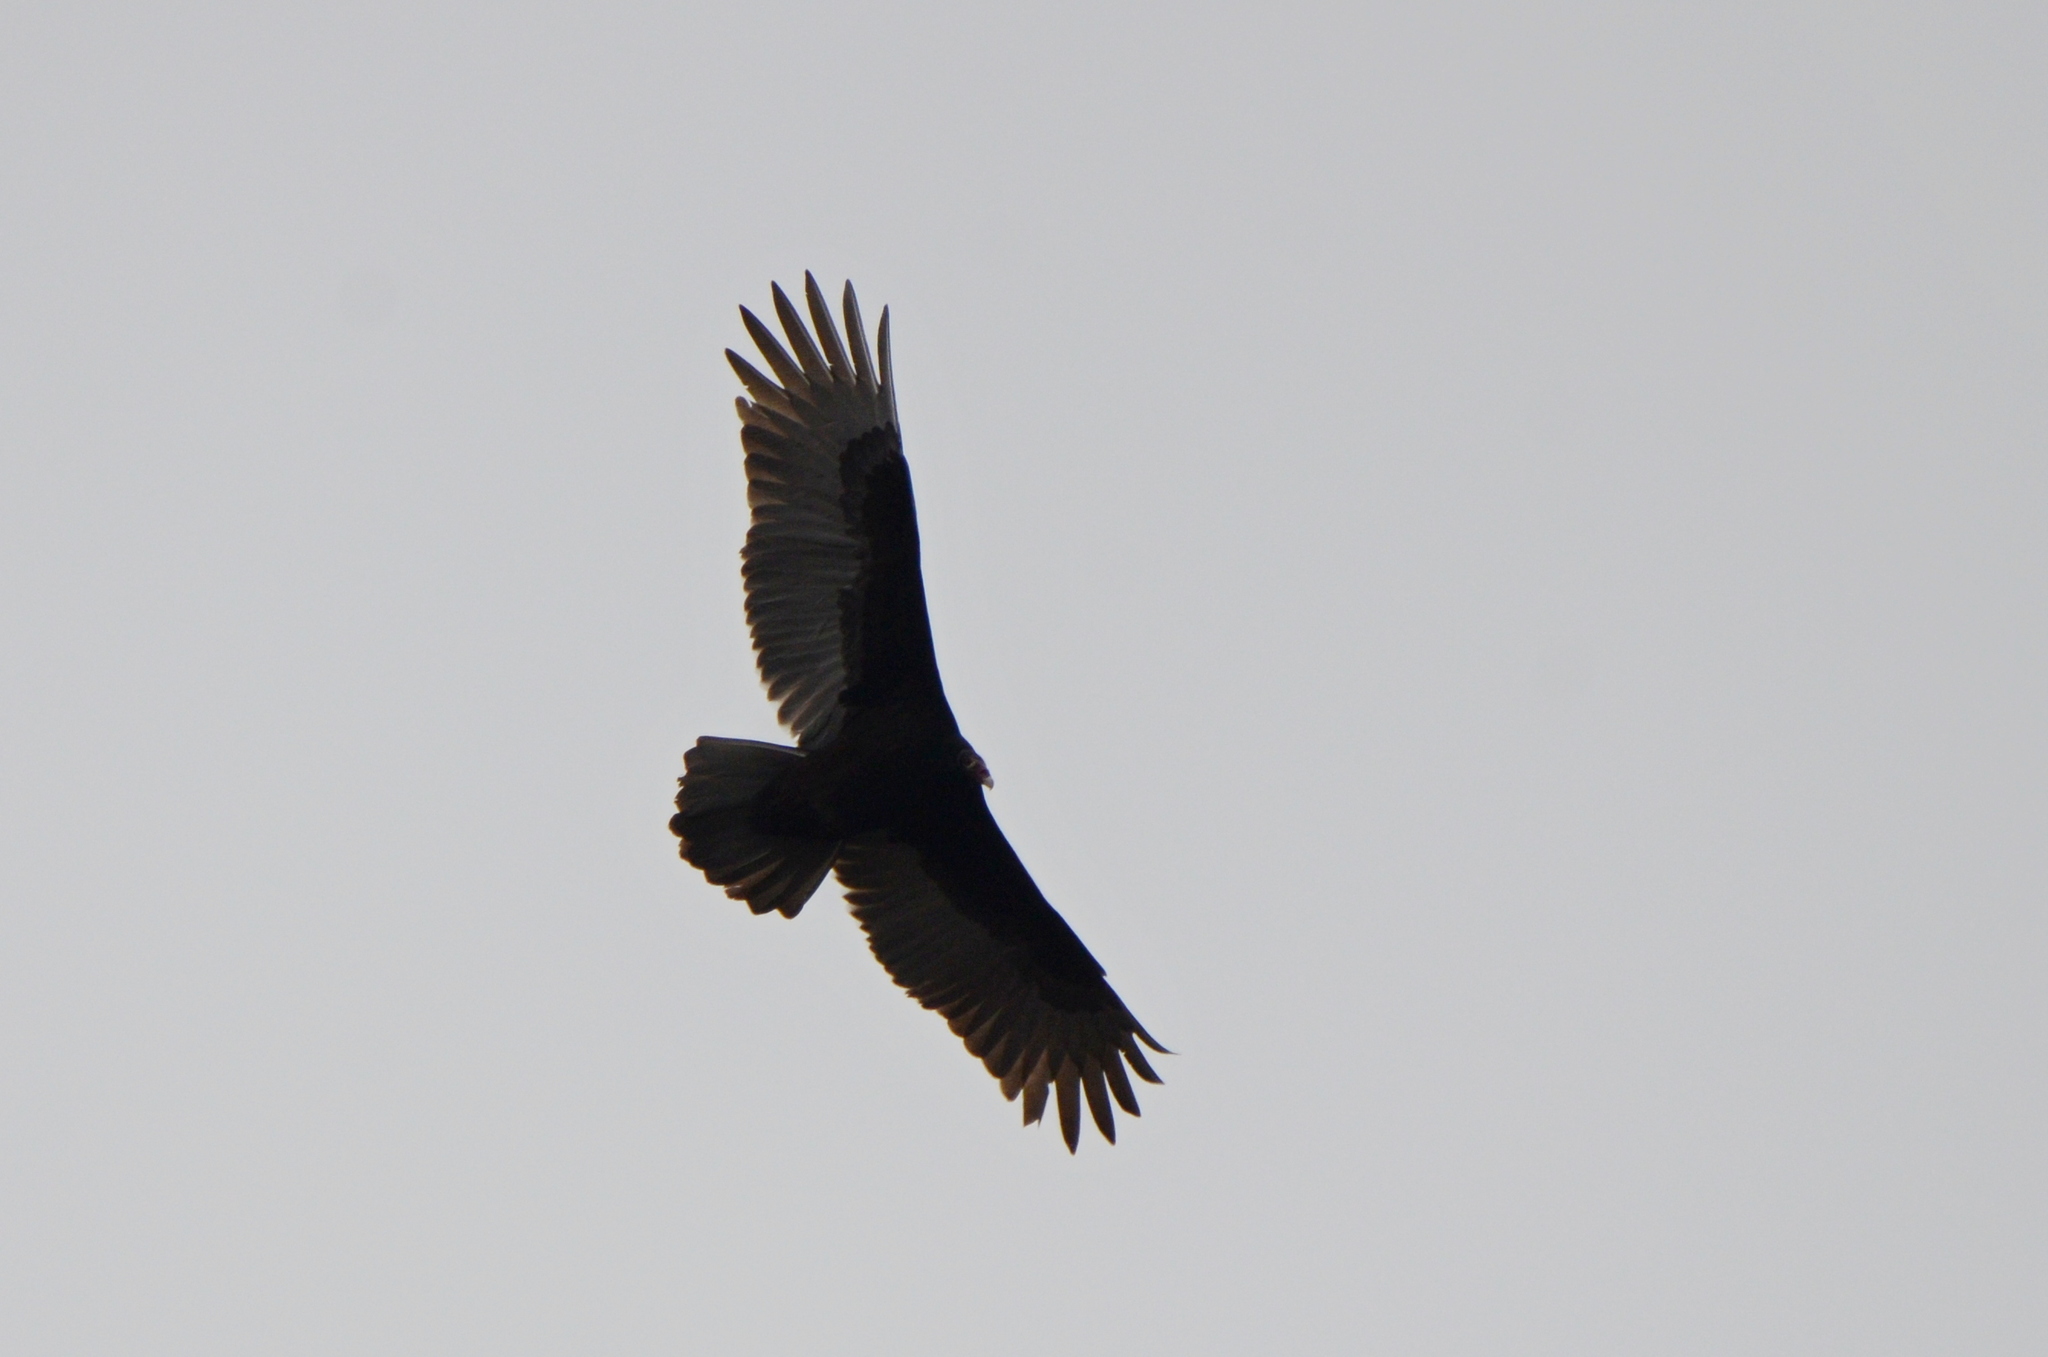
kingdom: Animalia
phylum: Chordata
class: Aves
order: Accipitriformes
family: Cathartidae
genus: Cathartes
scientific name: Cathartes aura
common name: Turkey vulture
